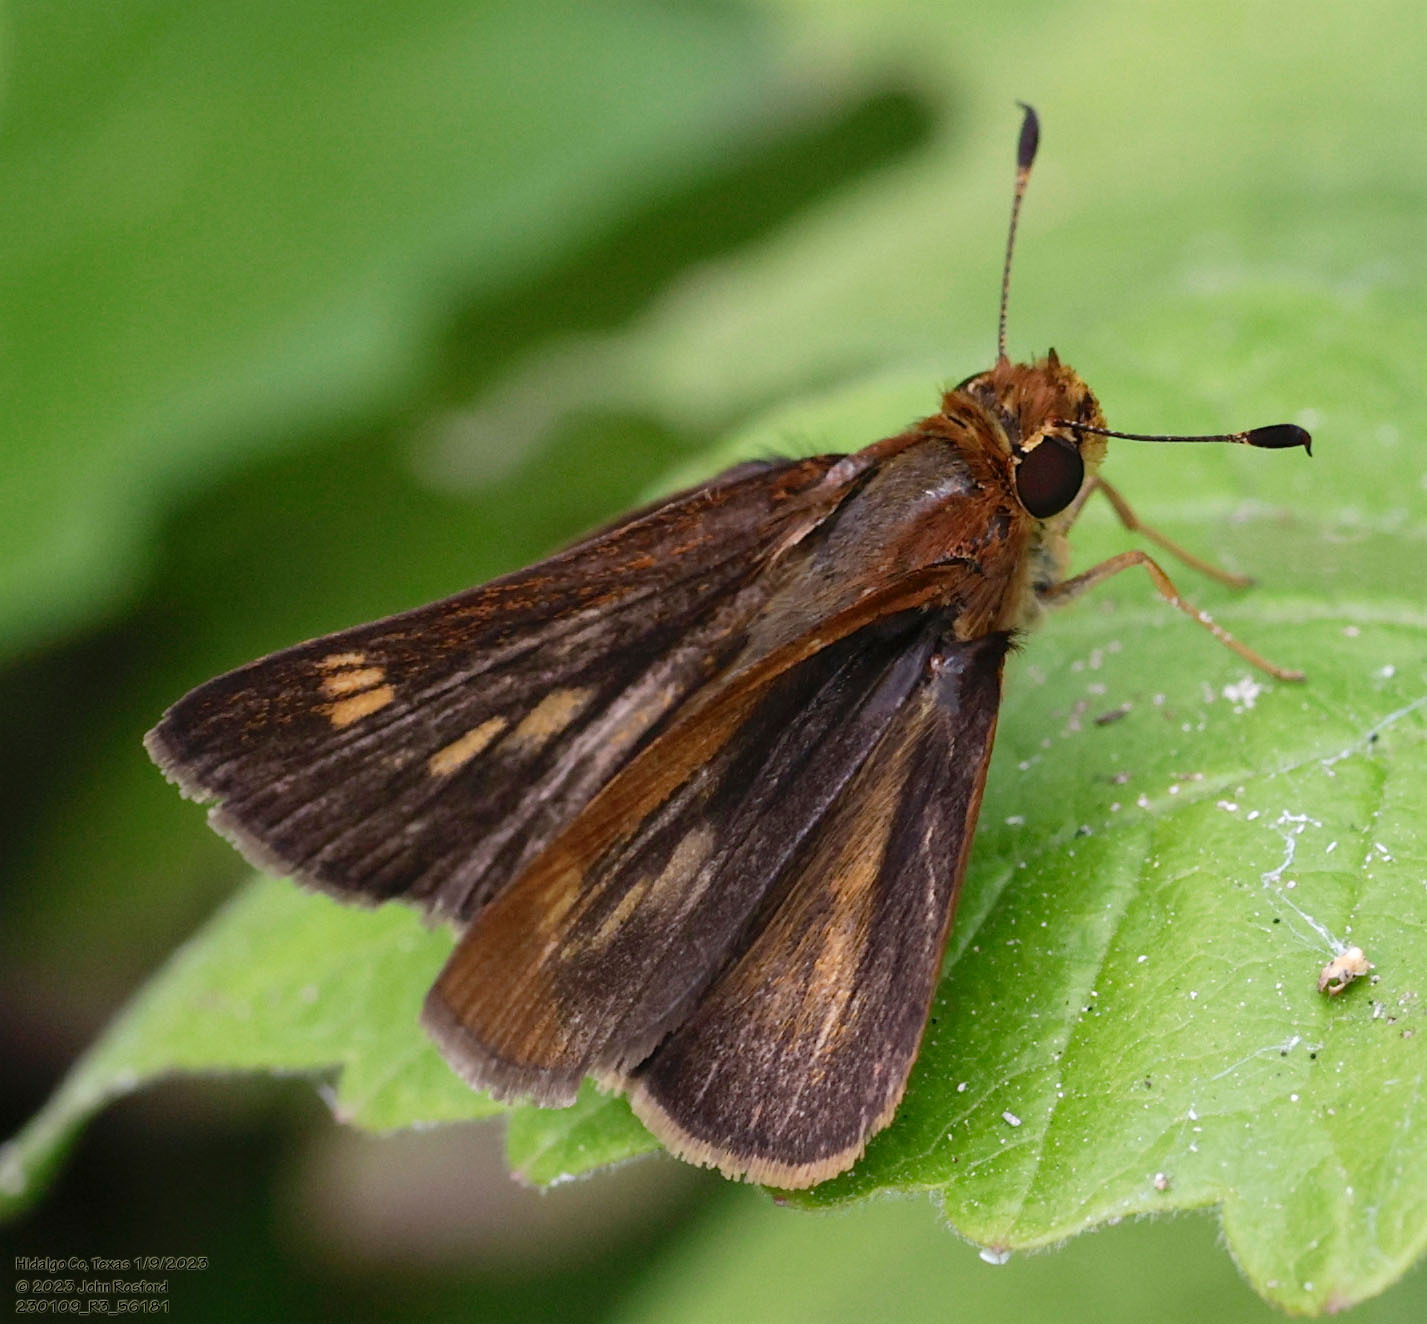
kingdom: Animalia
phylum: Arthropoda
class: Insecta
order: Lepidoptera
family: Hesperiidae
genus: Polites
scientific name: Polites otho
